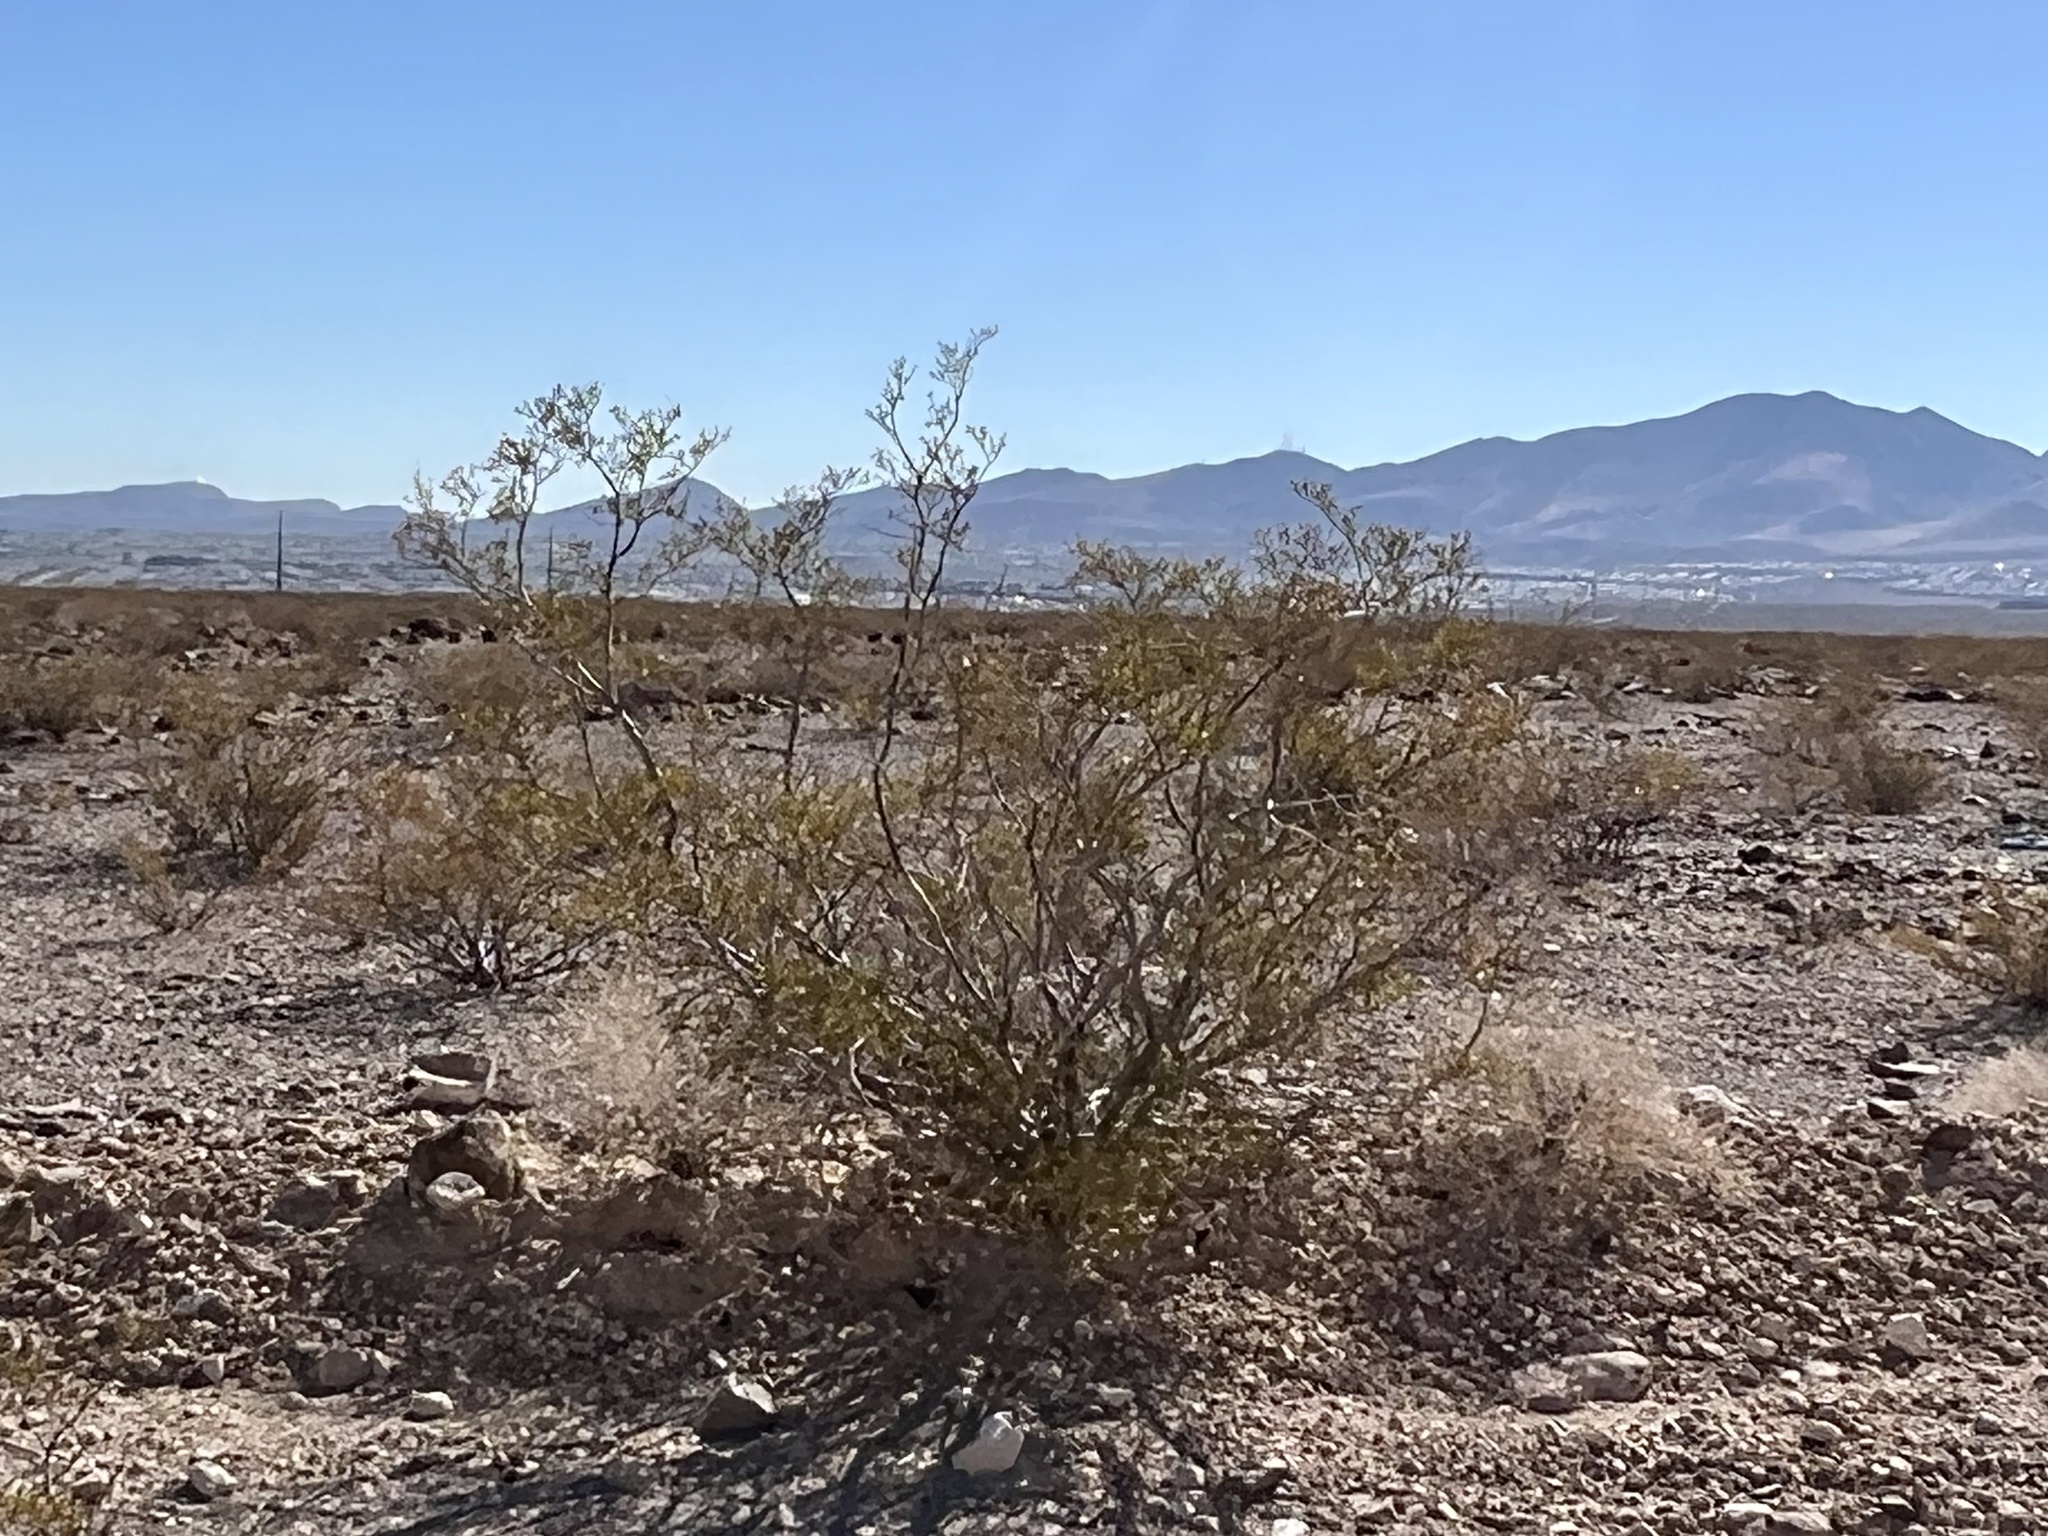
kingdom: Plantae
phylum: Tracheophyta
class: Magnoliopsida
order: Zygophyllales
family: Zygophyllaceae
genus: Larrea
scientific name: Larrea tridentata
